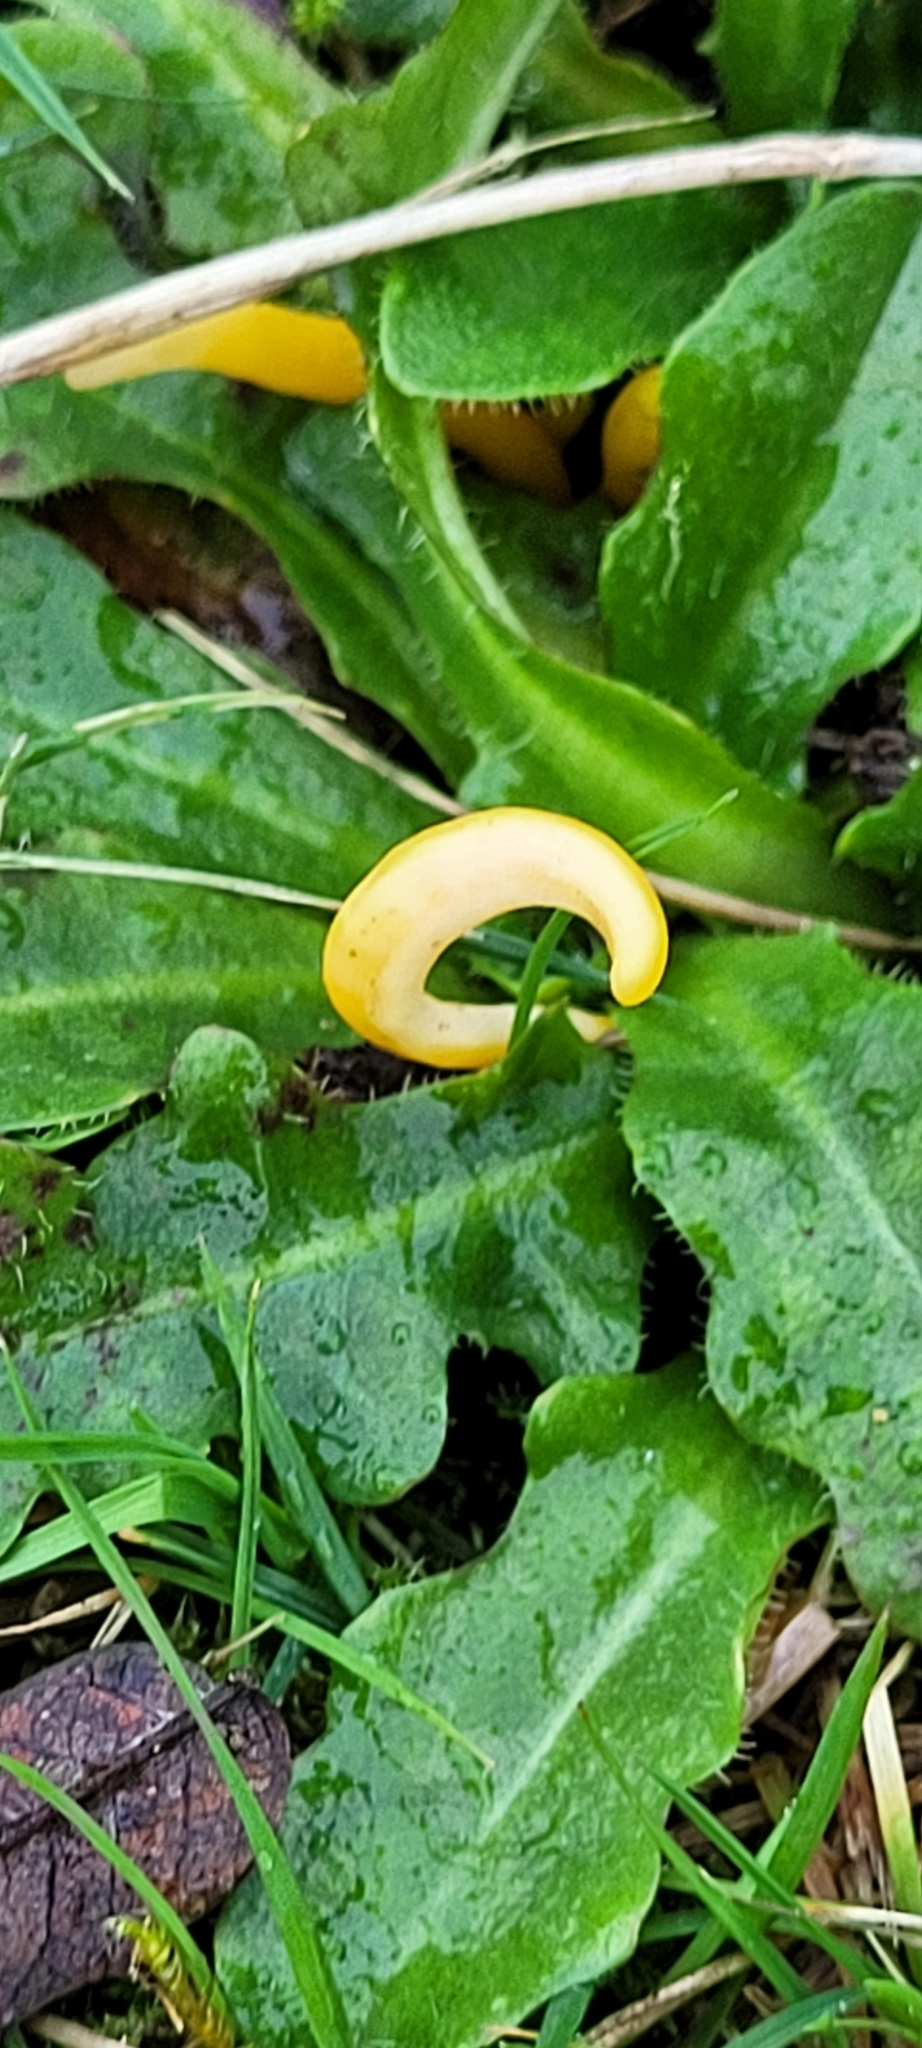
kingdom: Fungi
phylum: Basidiomycota
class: Agaricomycetes
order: Agaricales
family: Clavariaceae
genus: Clavulinopsis
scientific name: Clavulinopsis helvola
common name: Yellow club
